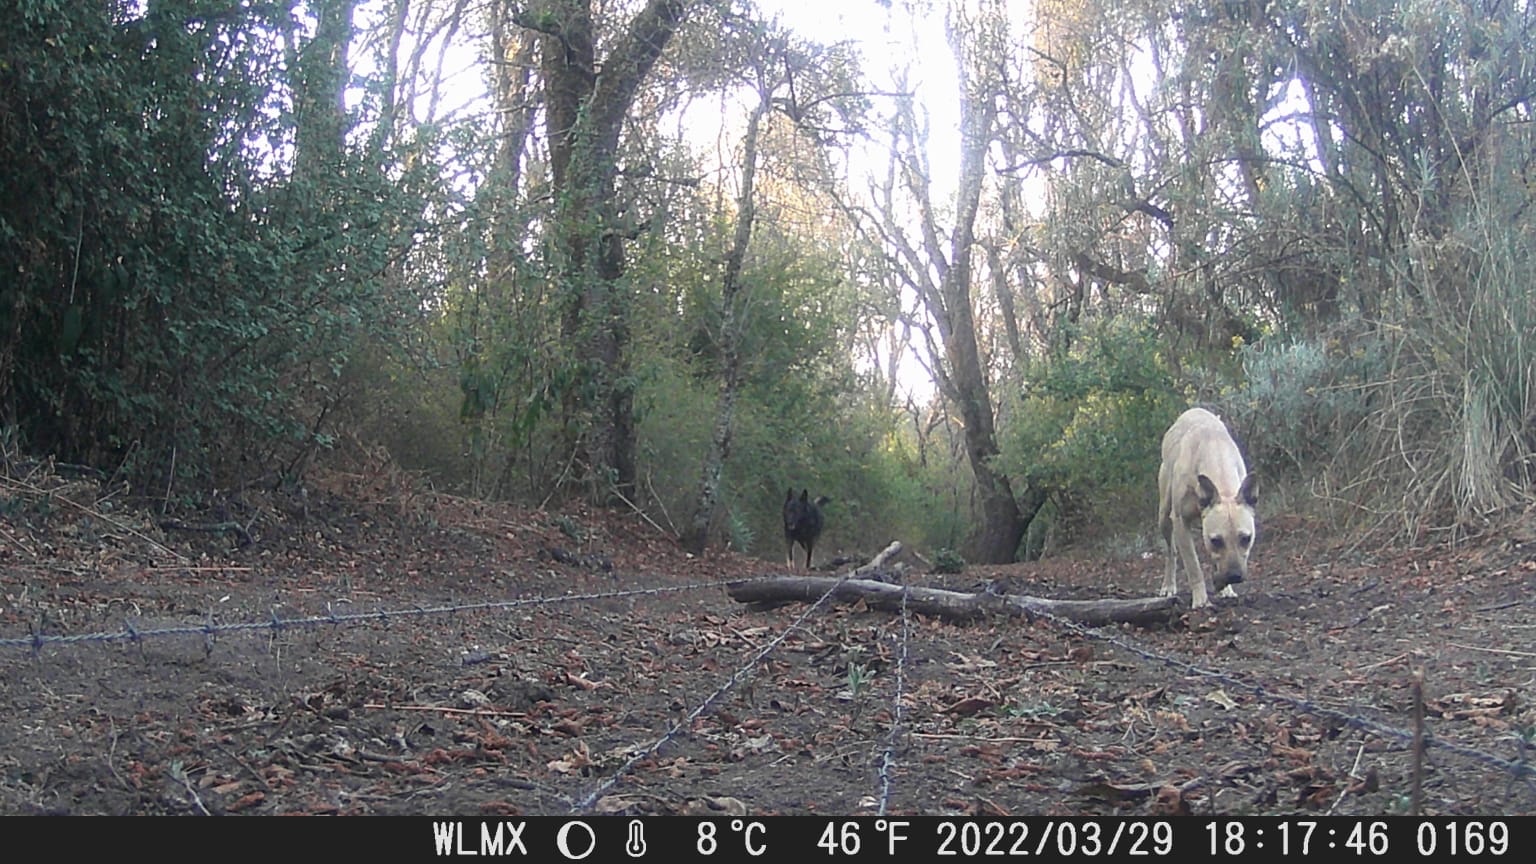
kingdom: Animalia
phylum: Chordata
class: Mammalia
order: Carnivora
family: Canidae
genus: Canis
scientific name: Canis lupus
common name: Gray wolf
